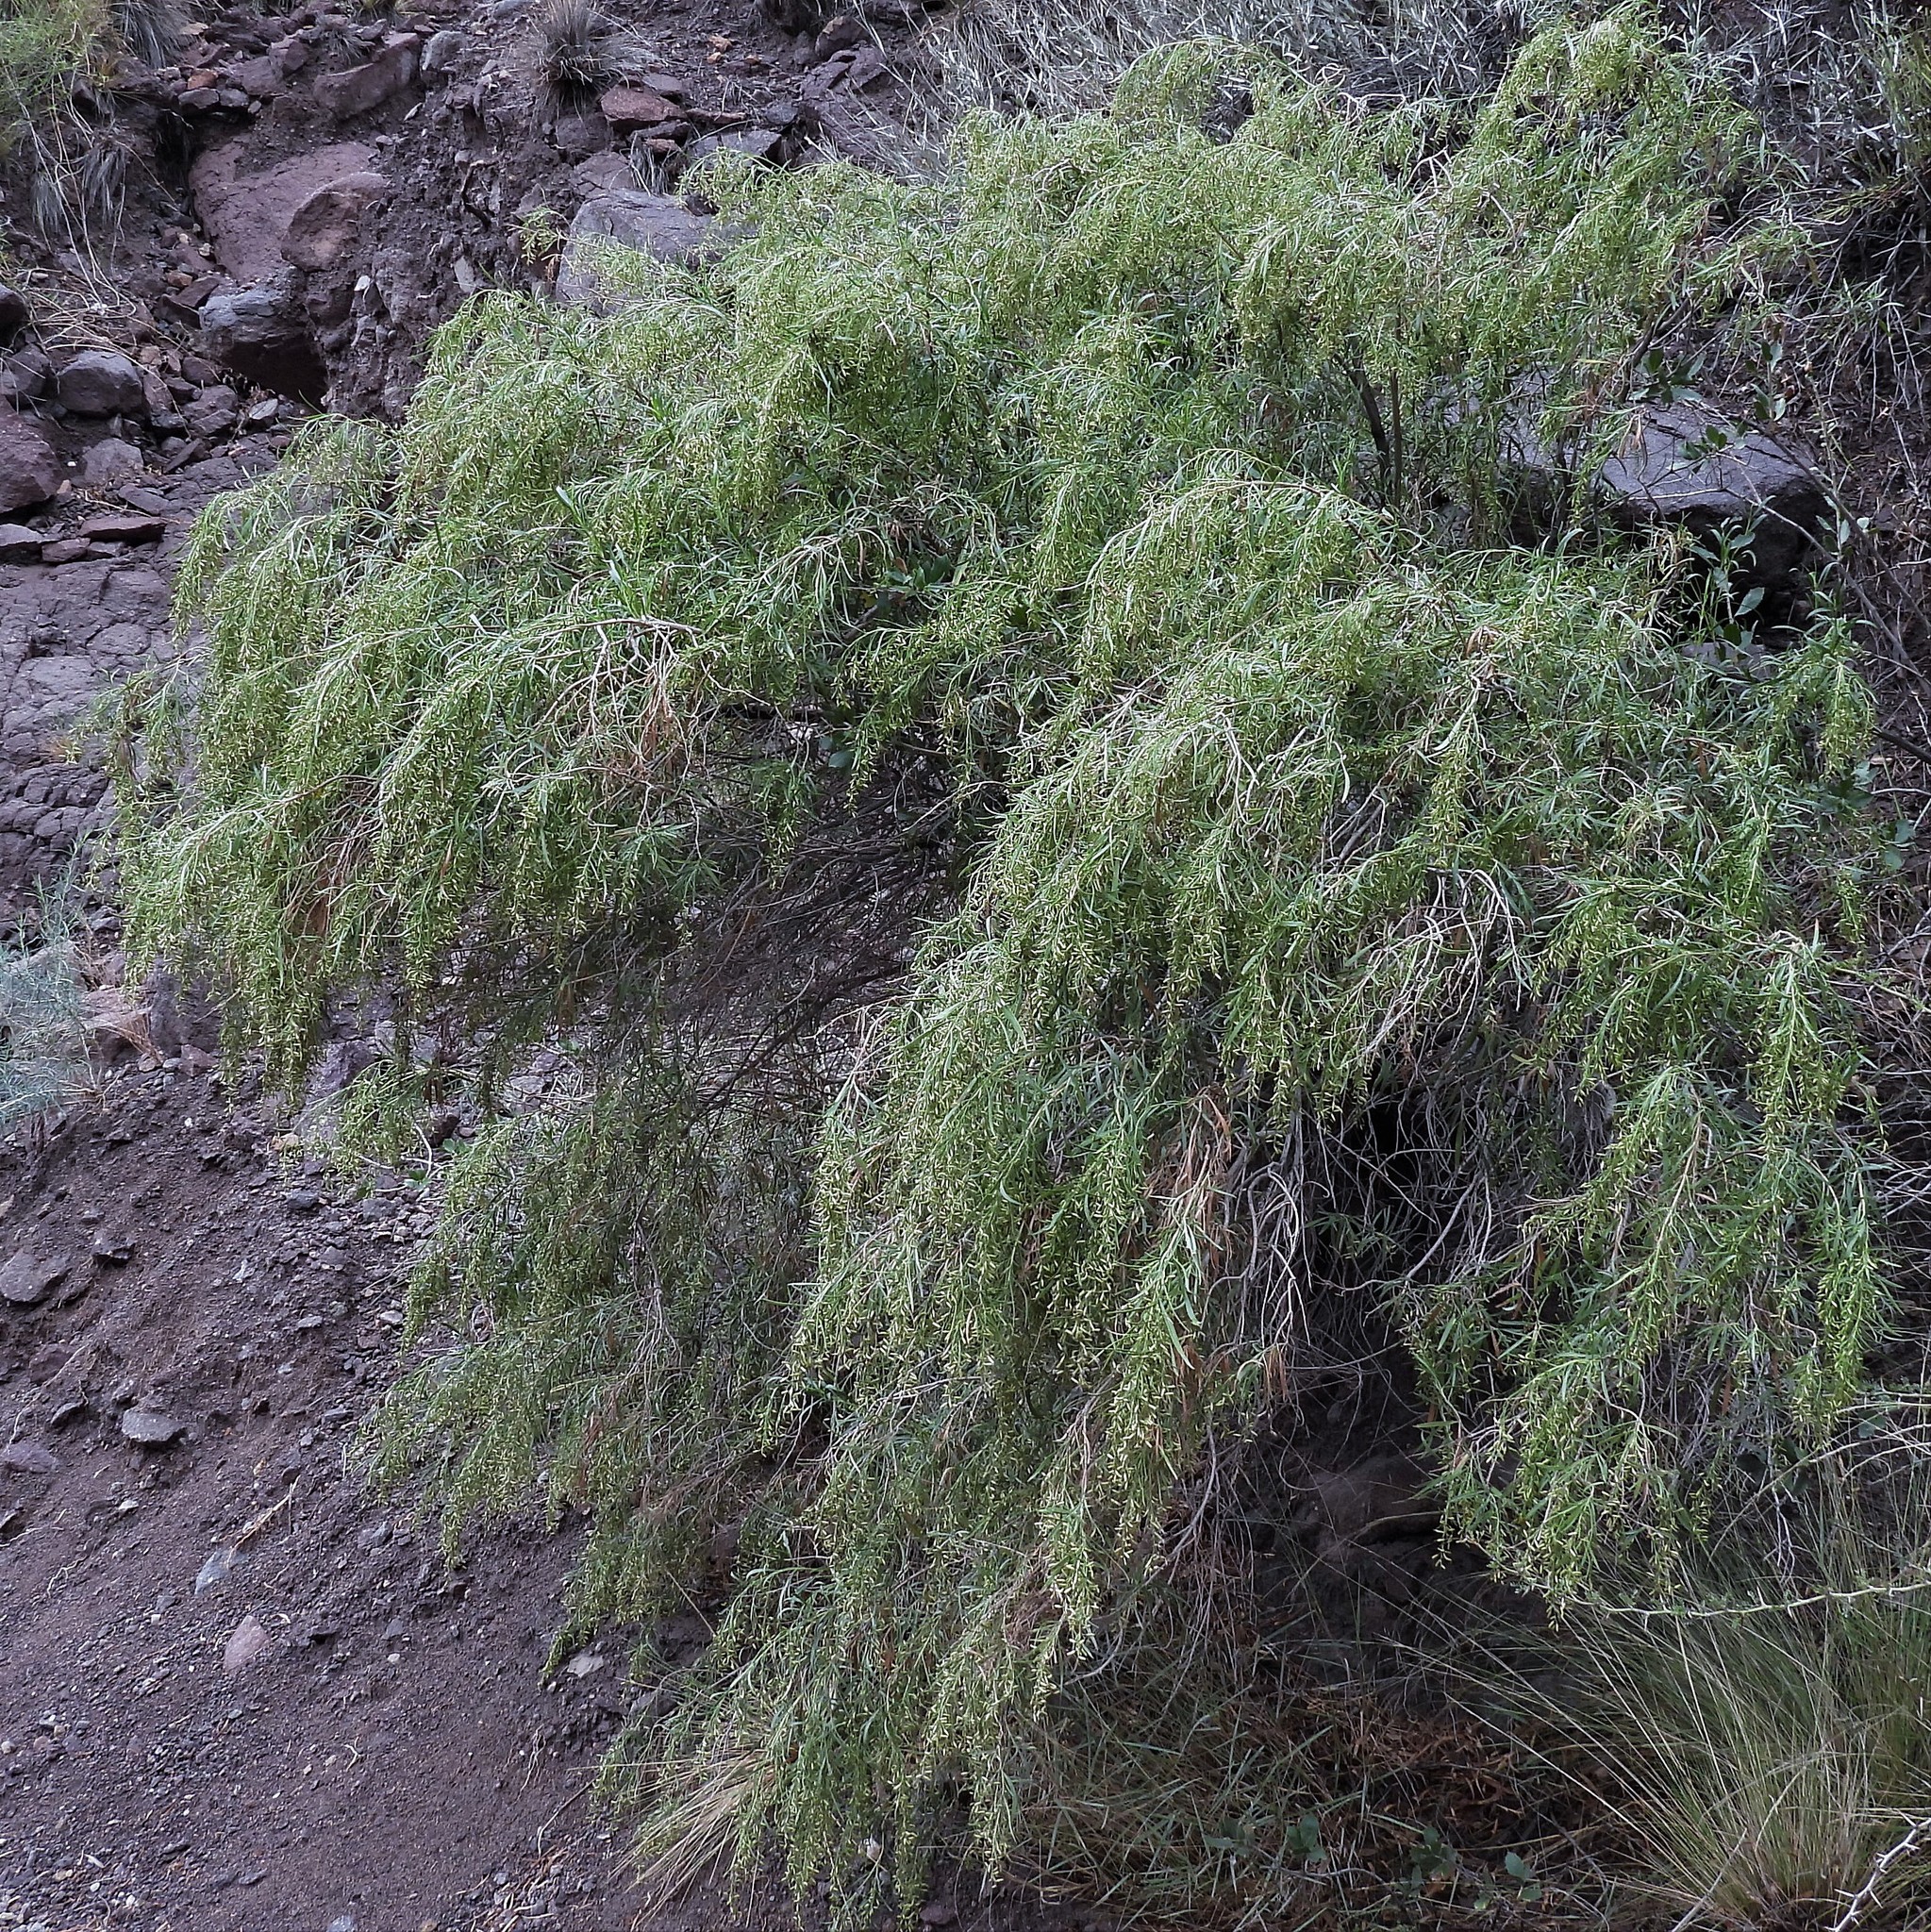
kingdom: Plantae
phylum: Tracheophyta
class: Magnoliopsida
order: Asterales
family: Asteraceae
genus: Acanthostyles
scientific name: Acanthostyles buniifolius
